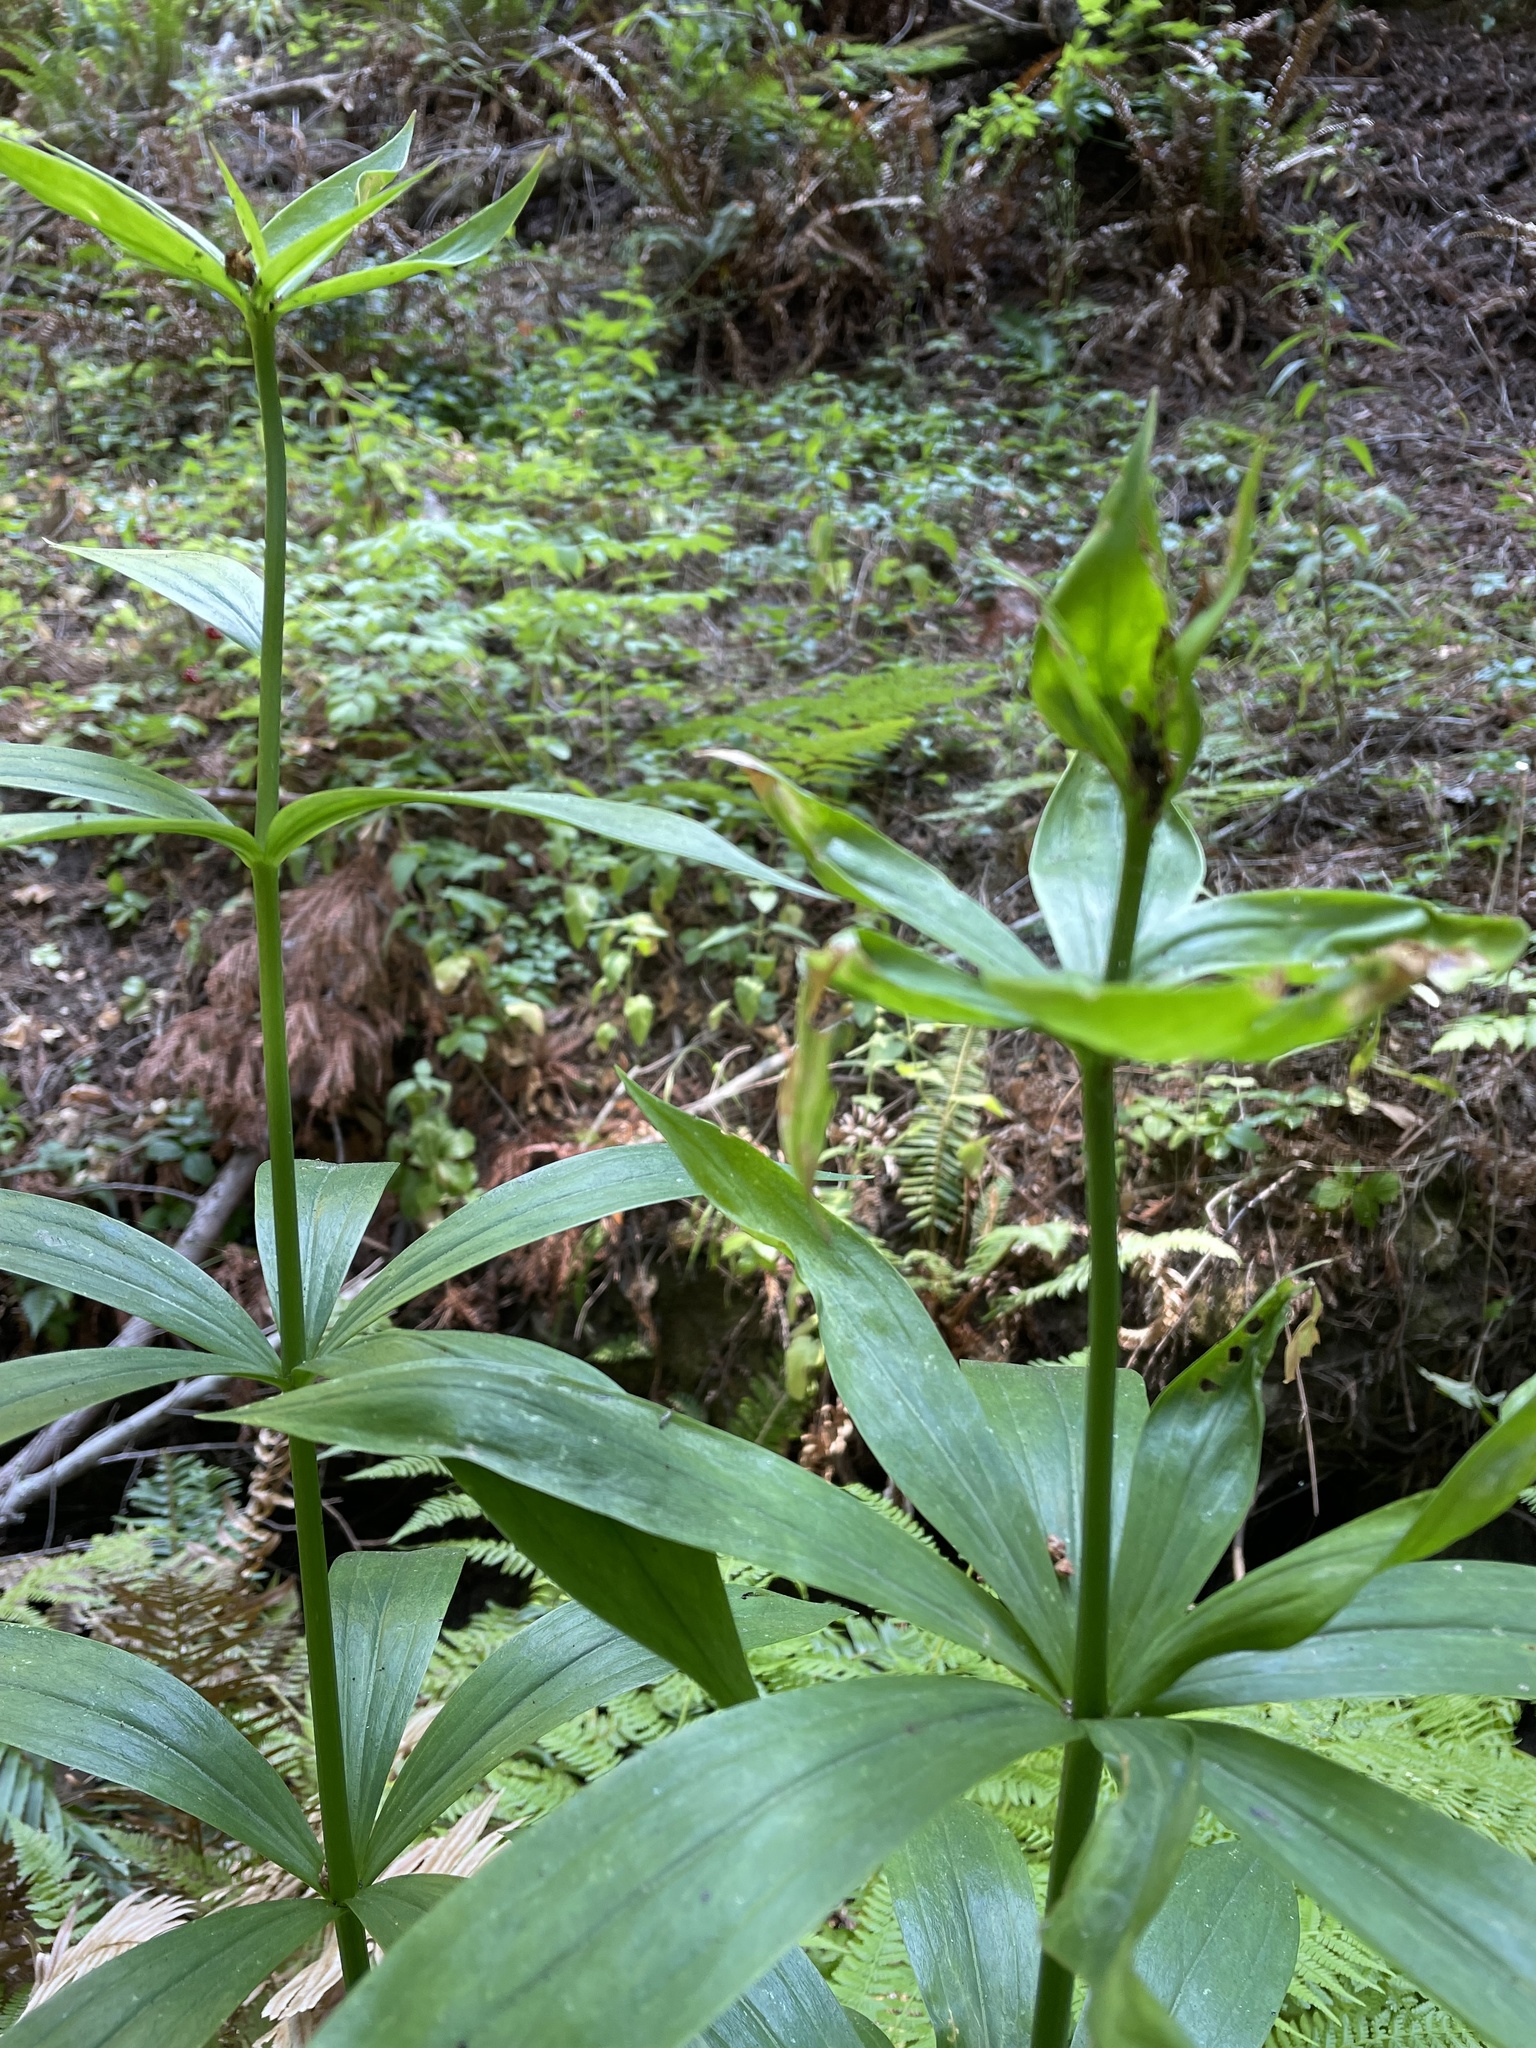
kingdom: Plantae
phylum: Tracheophyta
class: Liliopsida
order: Liliales
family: Liliaceae
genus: Lilium
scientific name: Lilium pardalinum
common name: Panther lily
